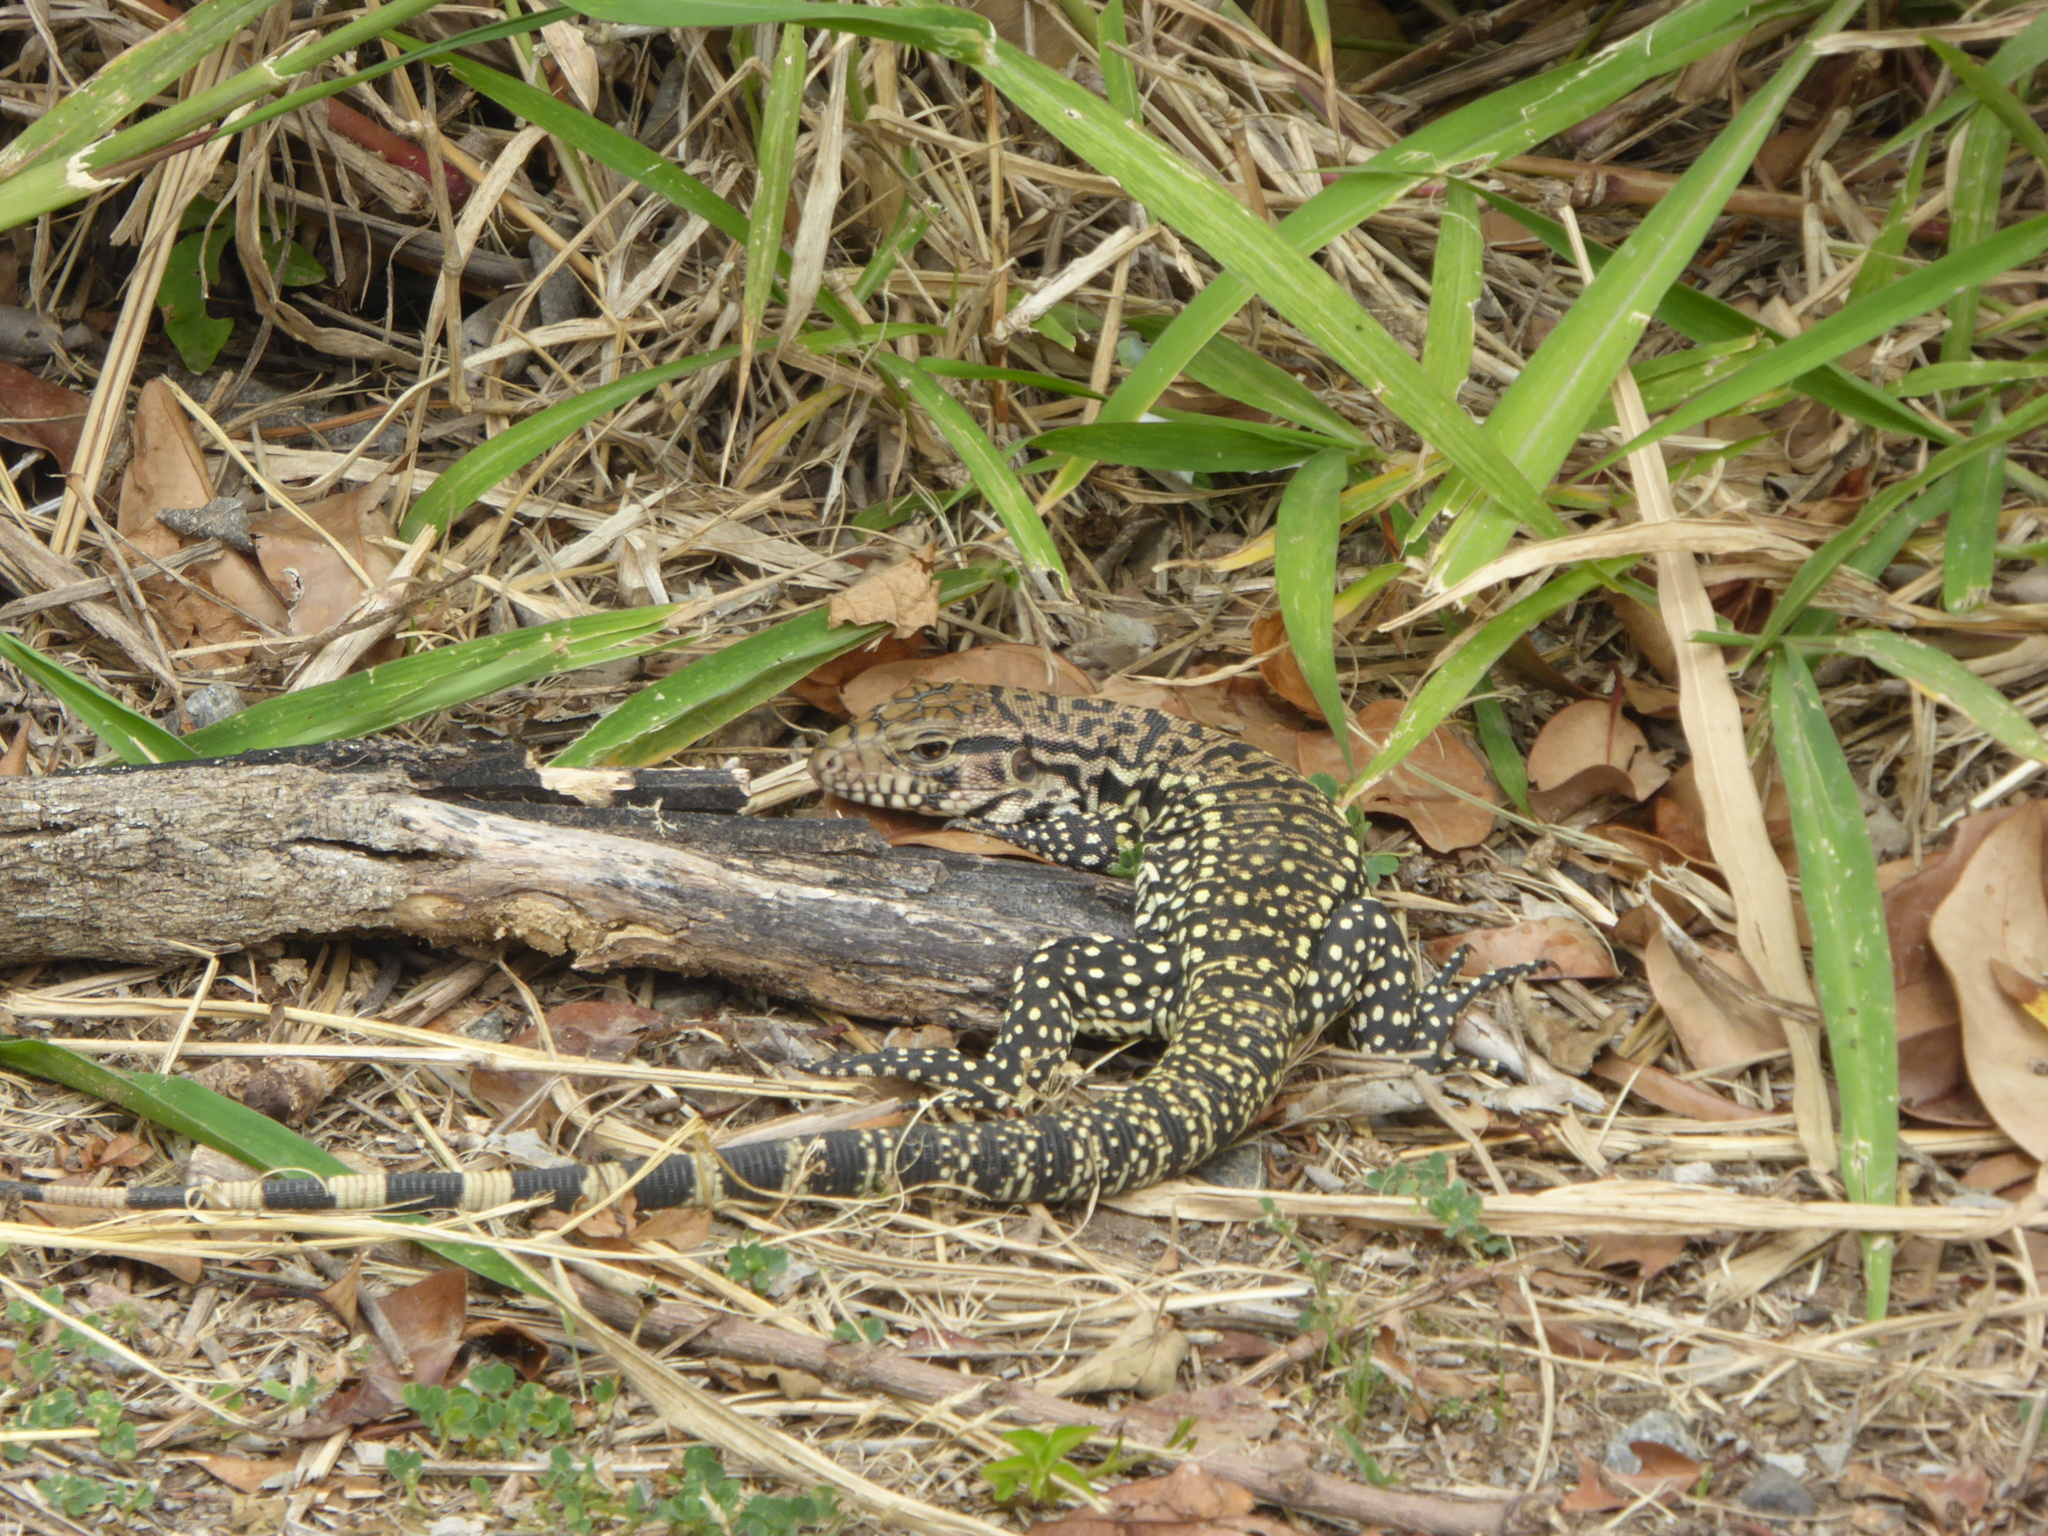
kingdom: Animalia
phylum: Chordata
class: Squamata
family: Teiidae
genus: Salvator
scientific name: Salvator merianae
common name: Argentine black and white tegu
